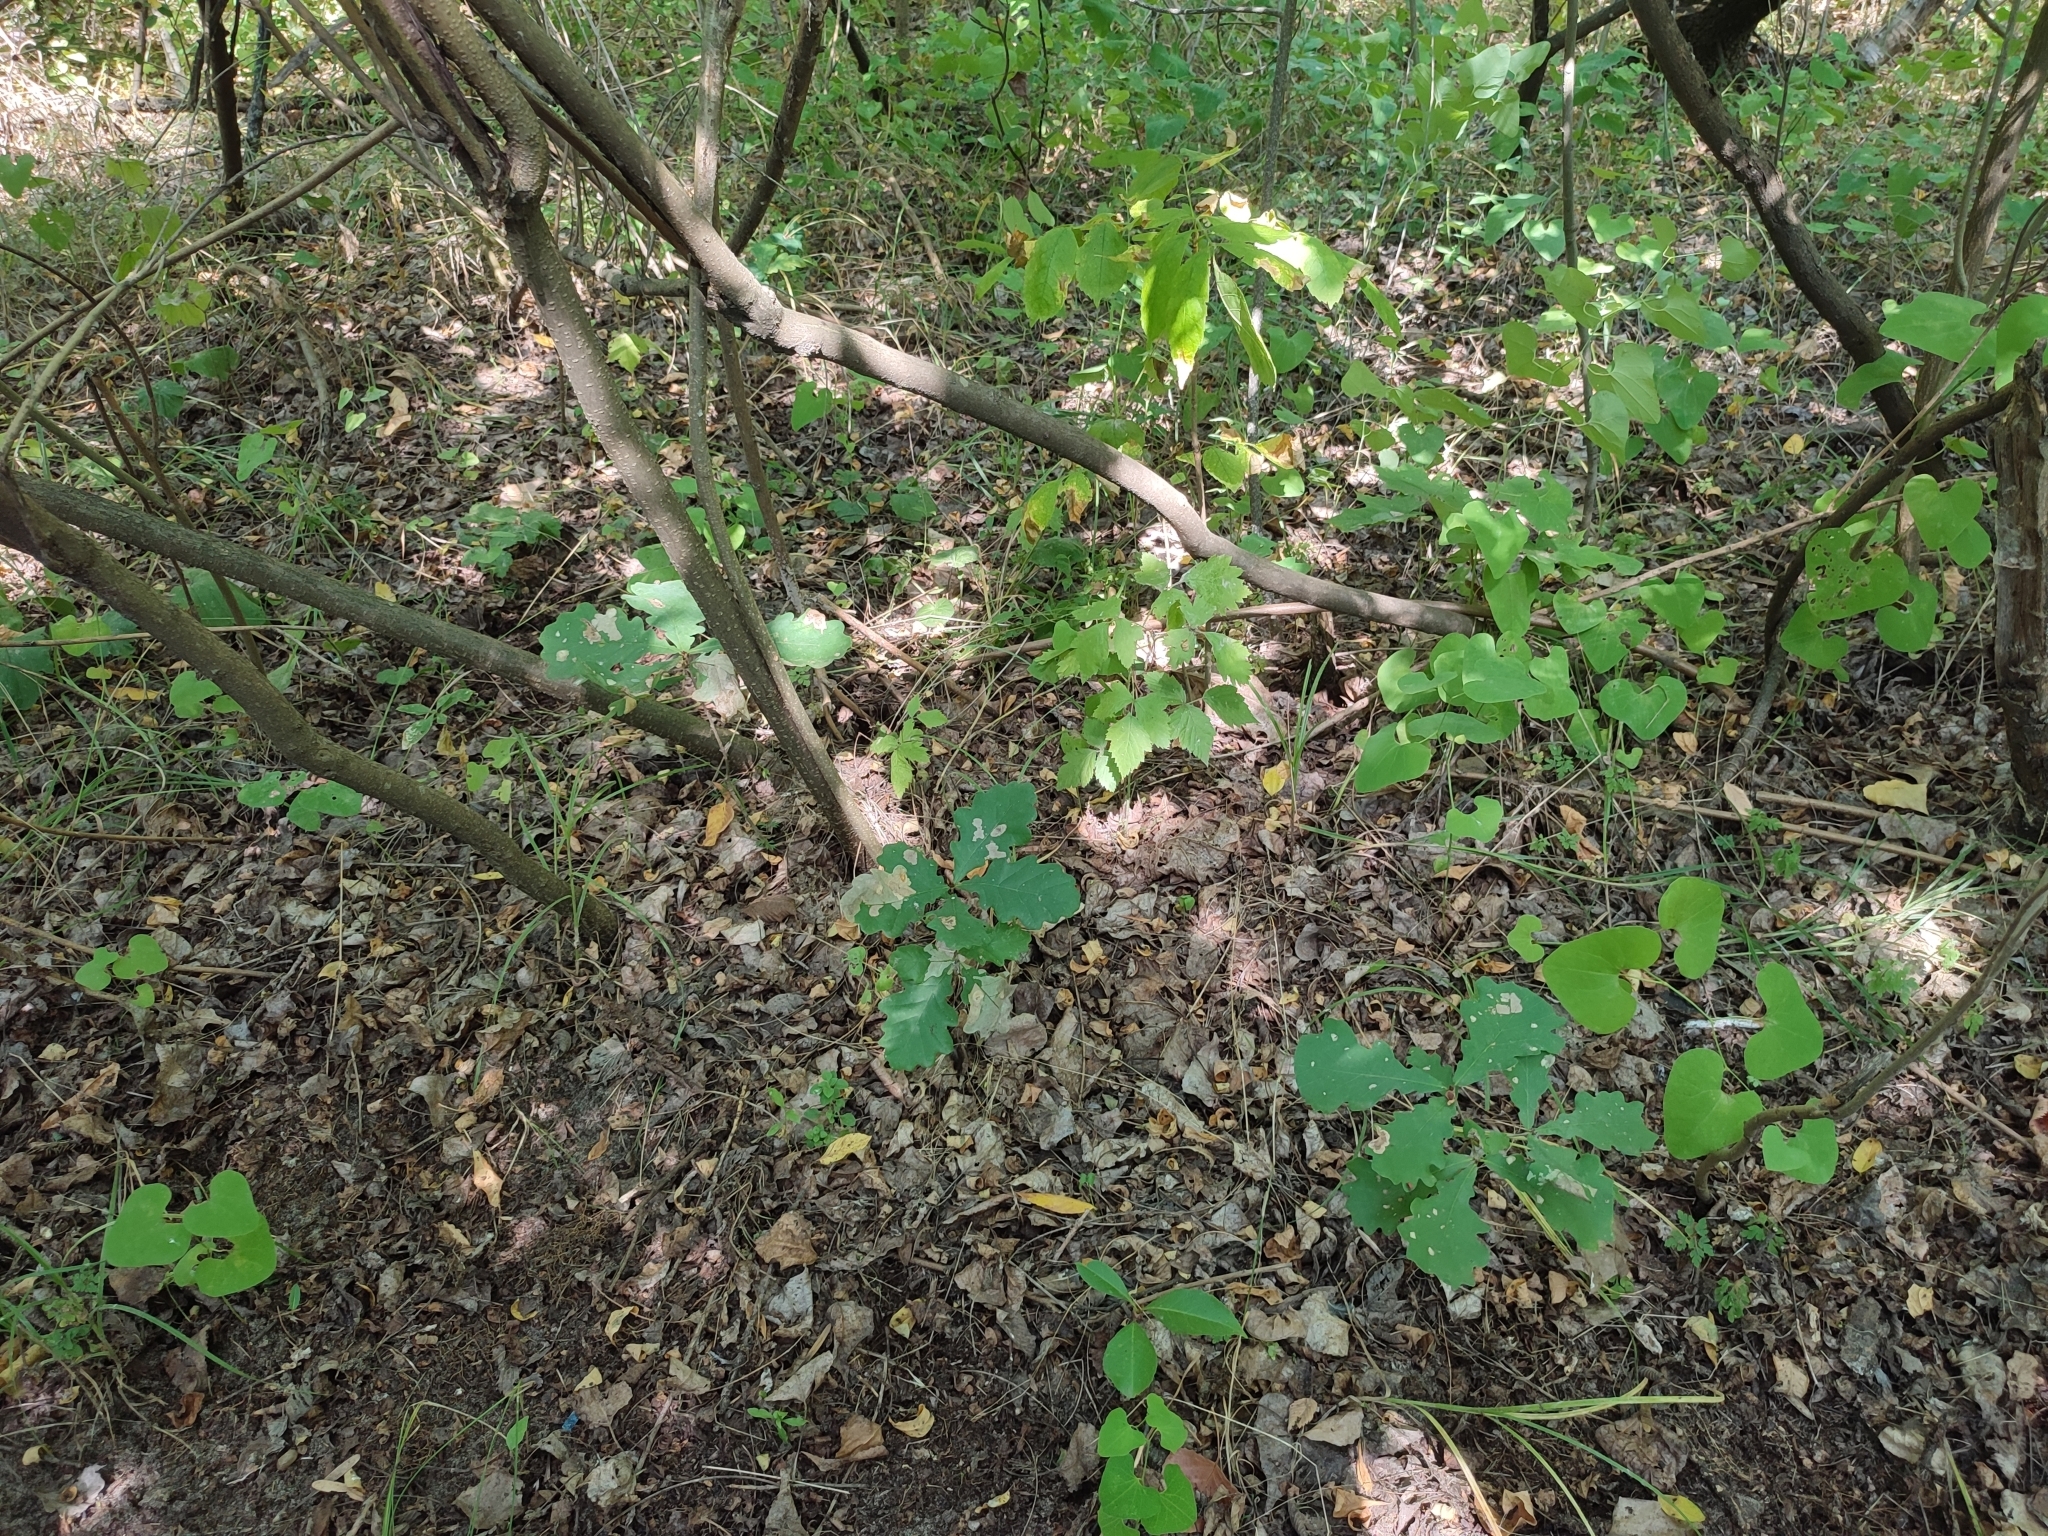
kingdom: Plantae
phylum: Tracheophyta
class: Magnoliopsida
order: Fagales
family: Fagaceae
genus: Quercus
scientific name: Quercus robur
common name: Pedunculate oak
